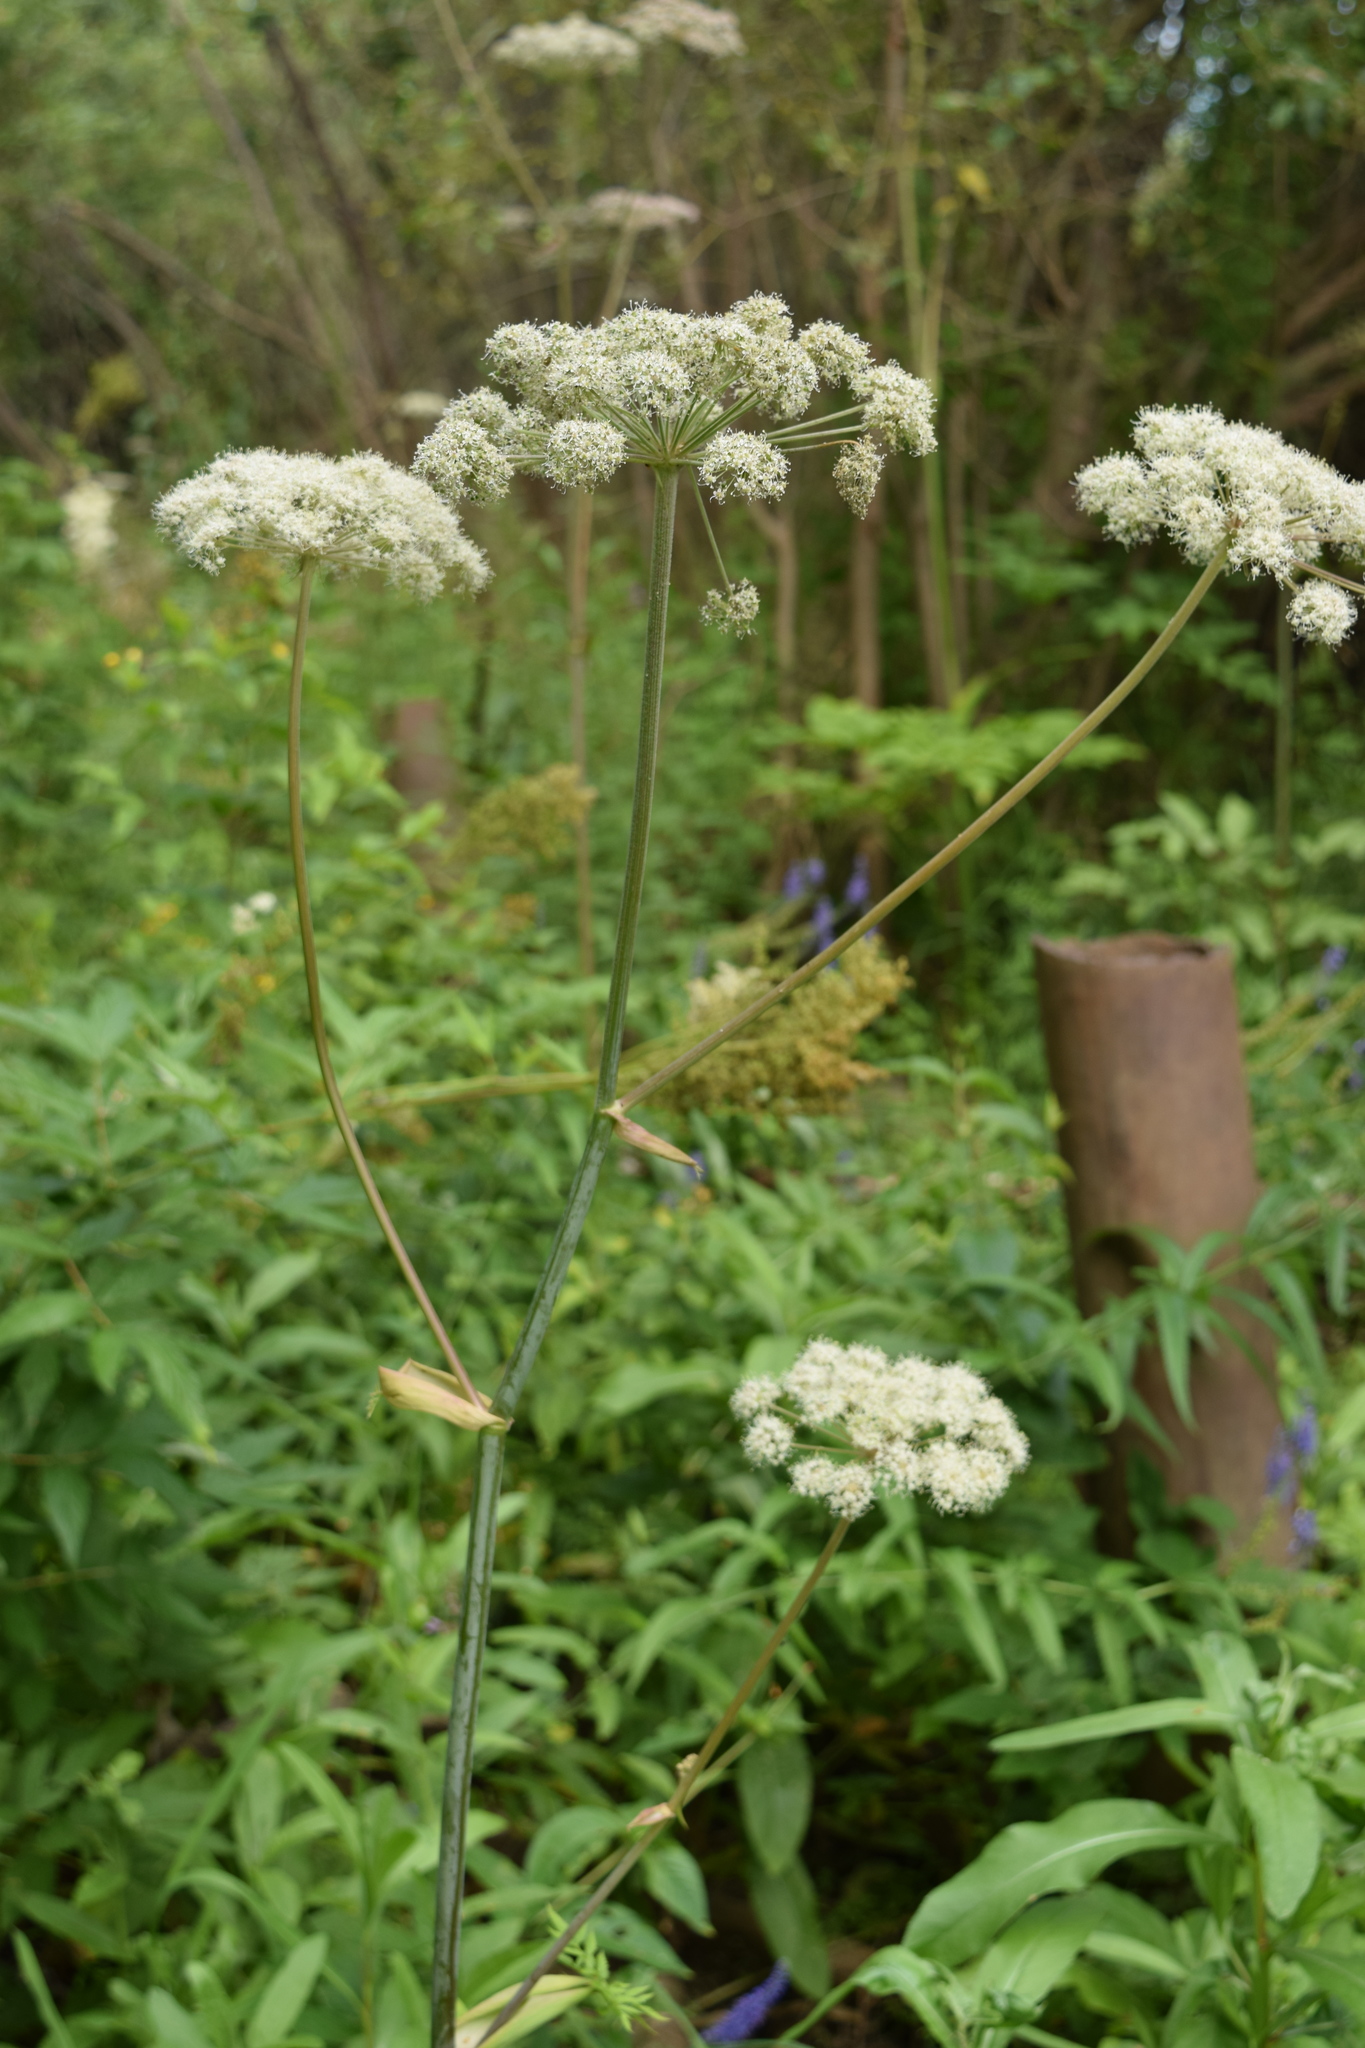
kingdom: Plantae
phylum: Tracheophyta
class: Magnoliopsida
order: Apiales
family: Apiaceae
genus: Angelica
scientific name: Angelica sylvestris
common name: Wild angelica
